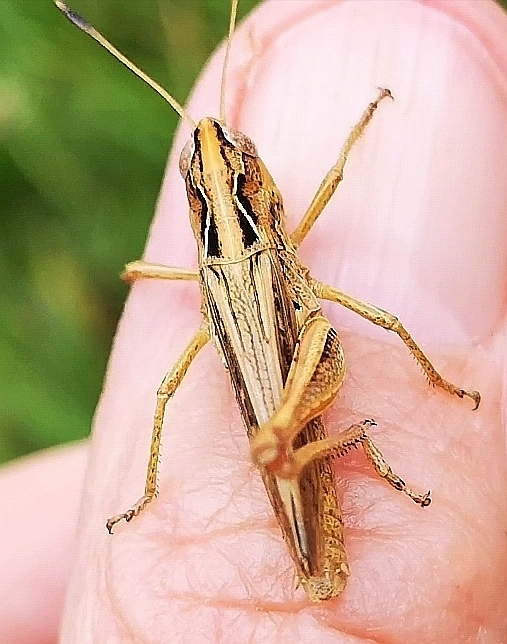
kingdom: Animalia
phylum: Arthropoda
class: Insecta
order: Orthoptera
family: Acrididae
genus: Gomphocerippus
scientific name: Gomphocerippus rufus
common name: Rufous grasshopper
